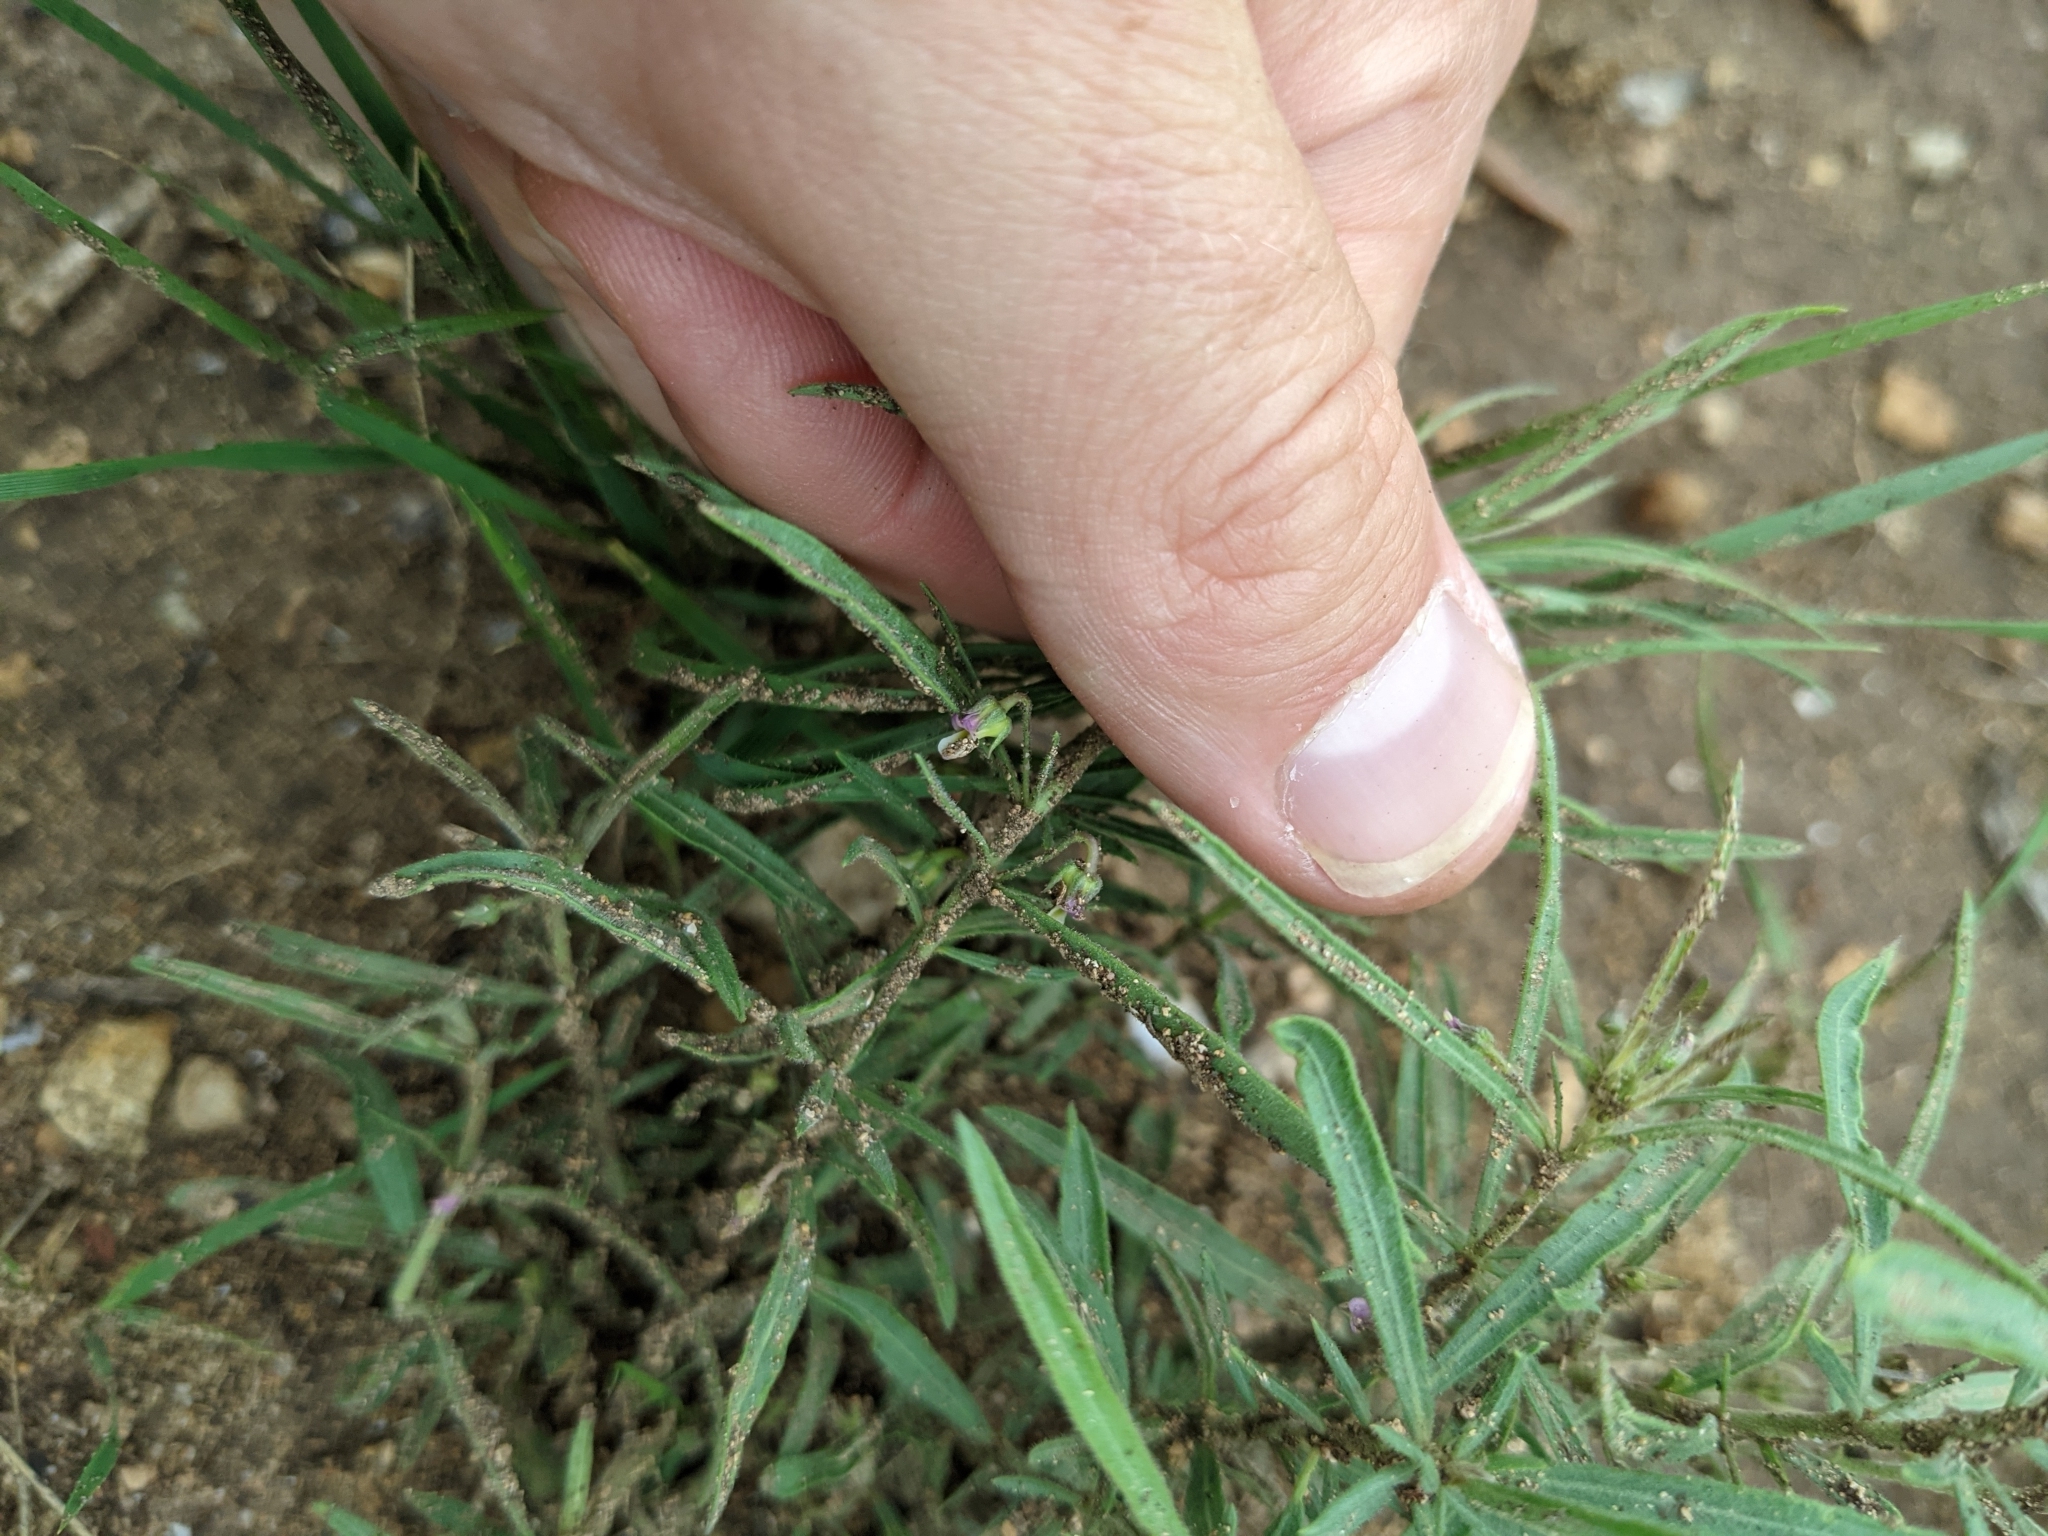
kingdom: Plantae
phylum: Tracheophyta
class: Magnoliopsida
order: Malpighiales
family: Violaceae
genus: Pombalia
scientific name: Pombalia verticillata
